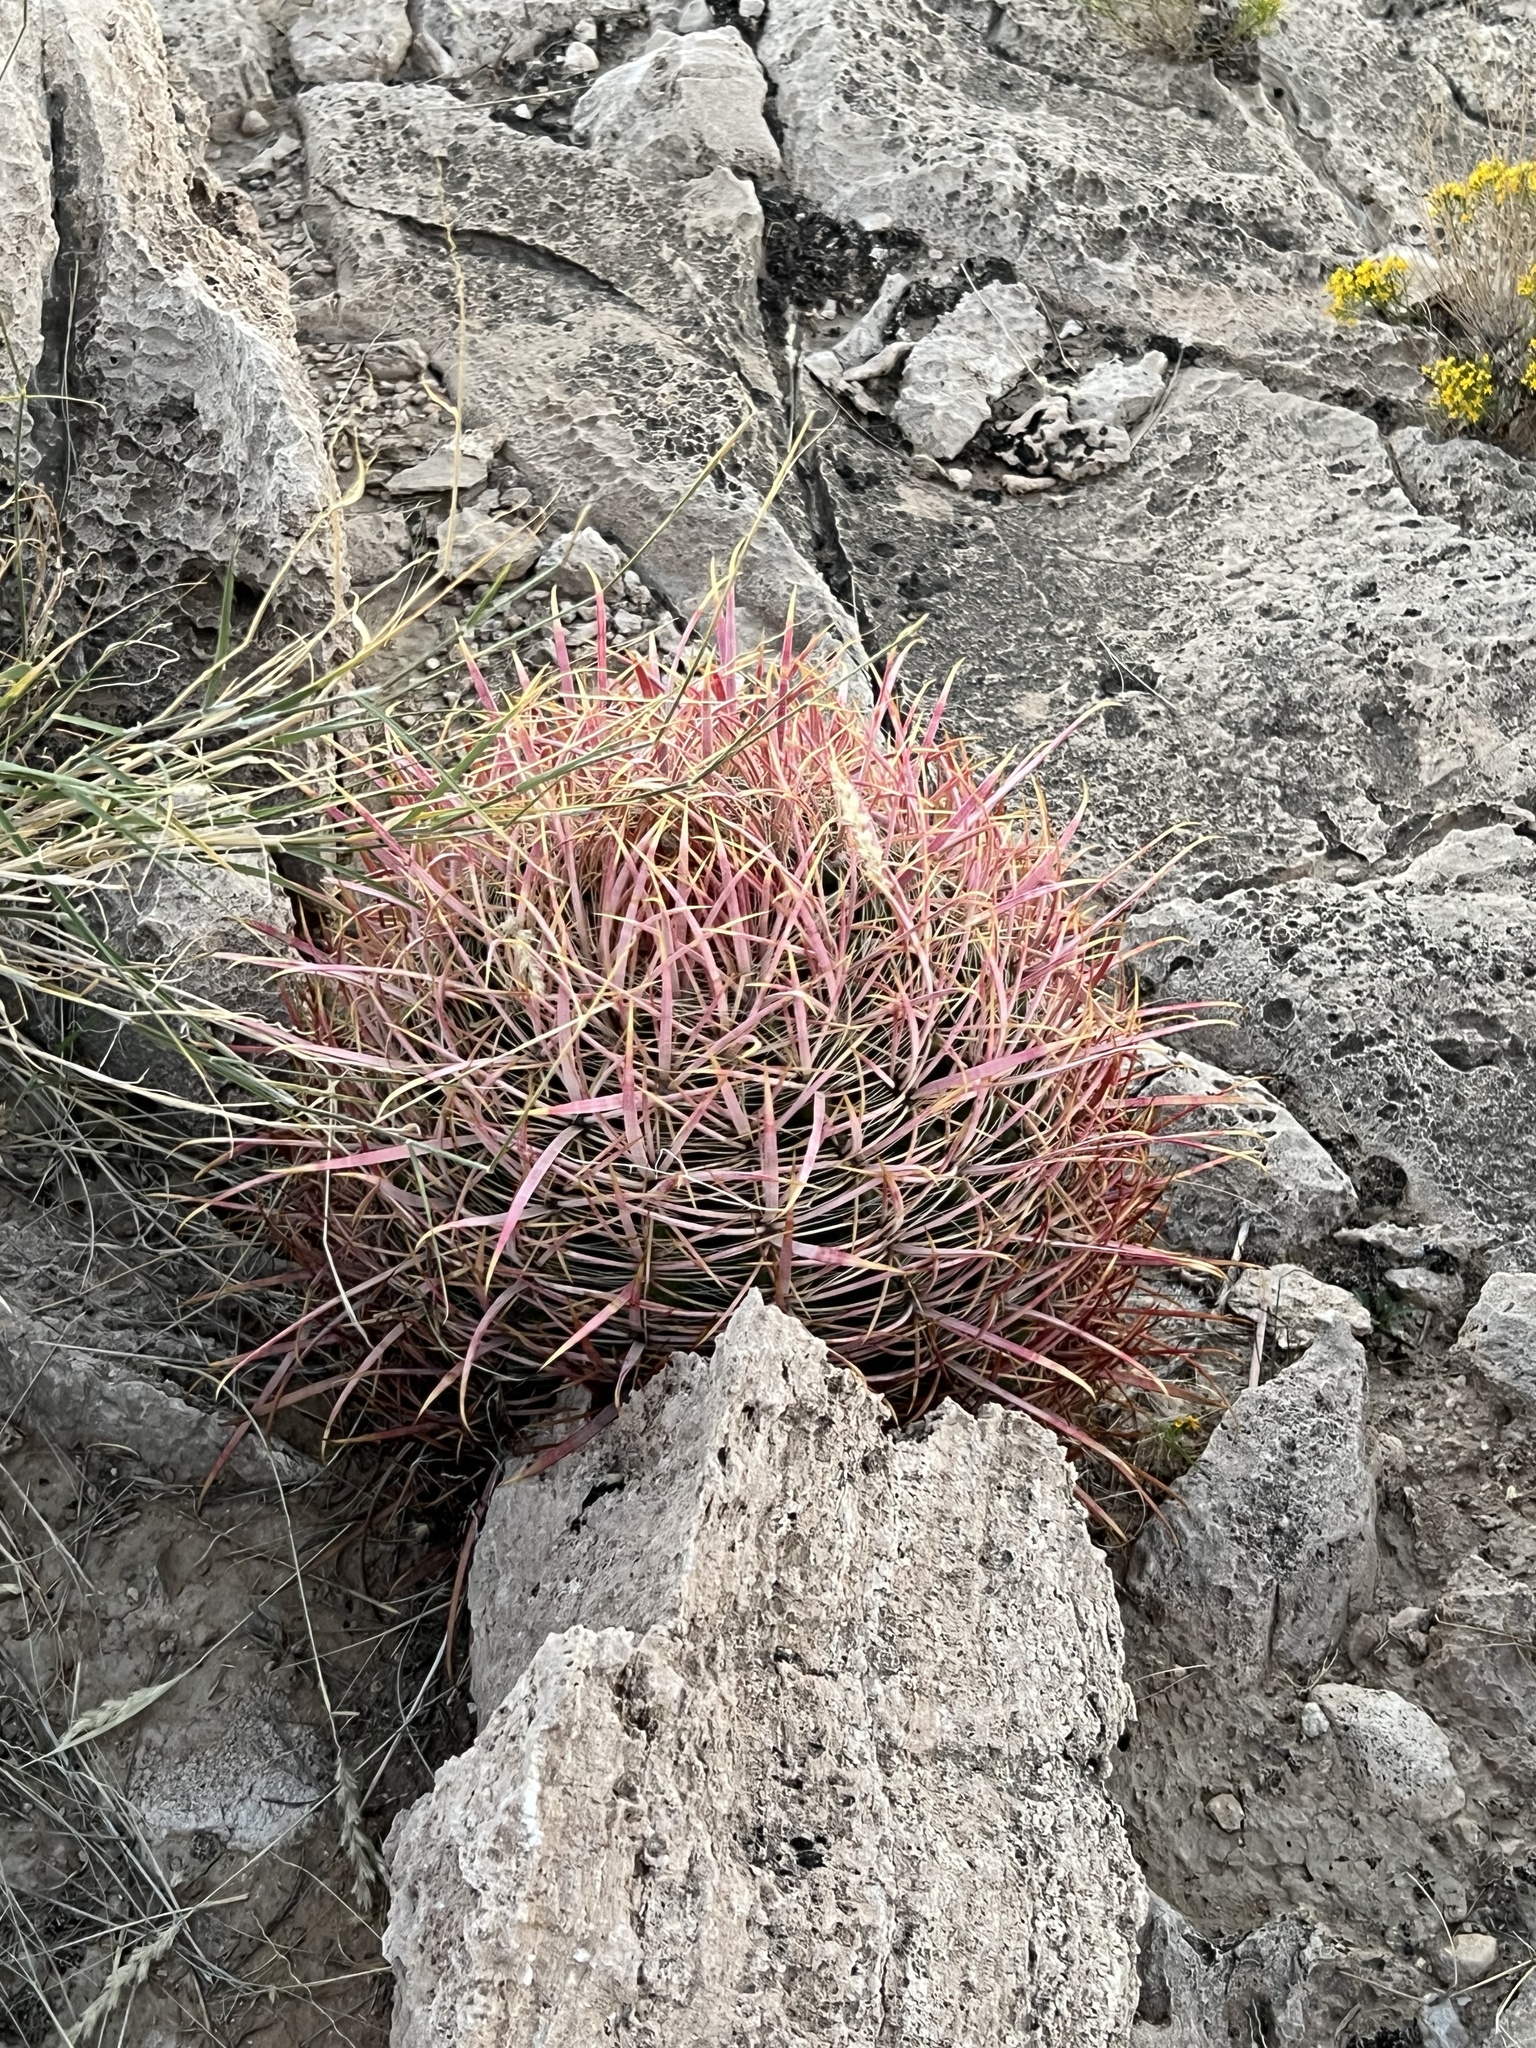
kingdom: Plantae
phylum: Tracheophyta
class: Magnoliopsida
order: Caryophyllales
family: Cactaceae
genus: Ferocactus
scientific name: Ferocactus cylindraceus
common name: California barrel cactus
